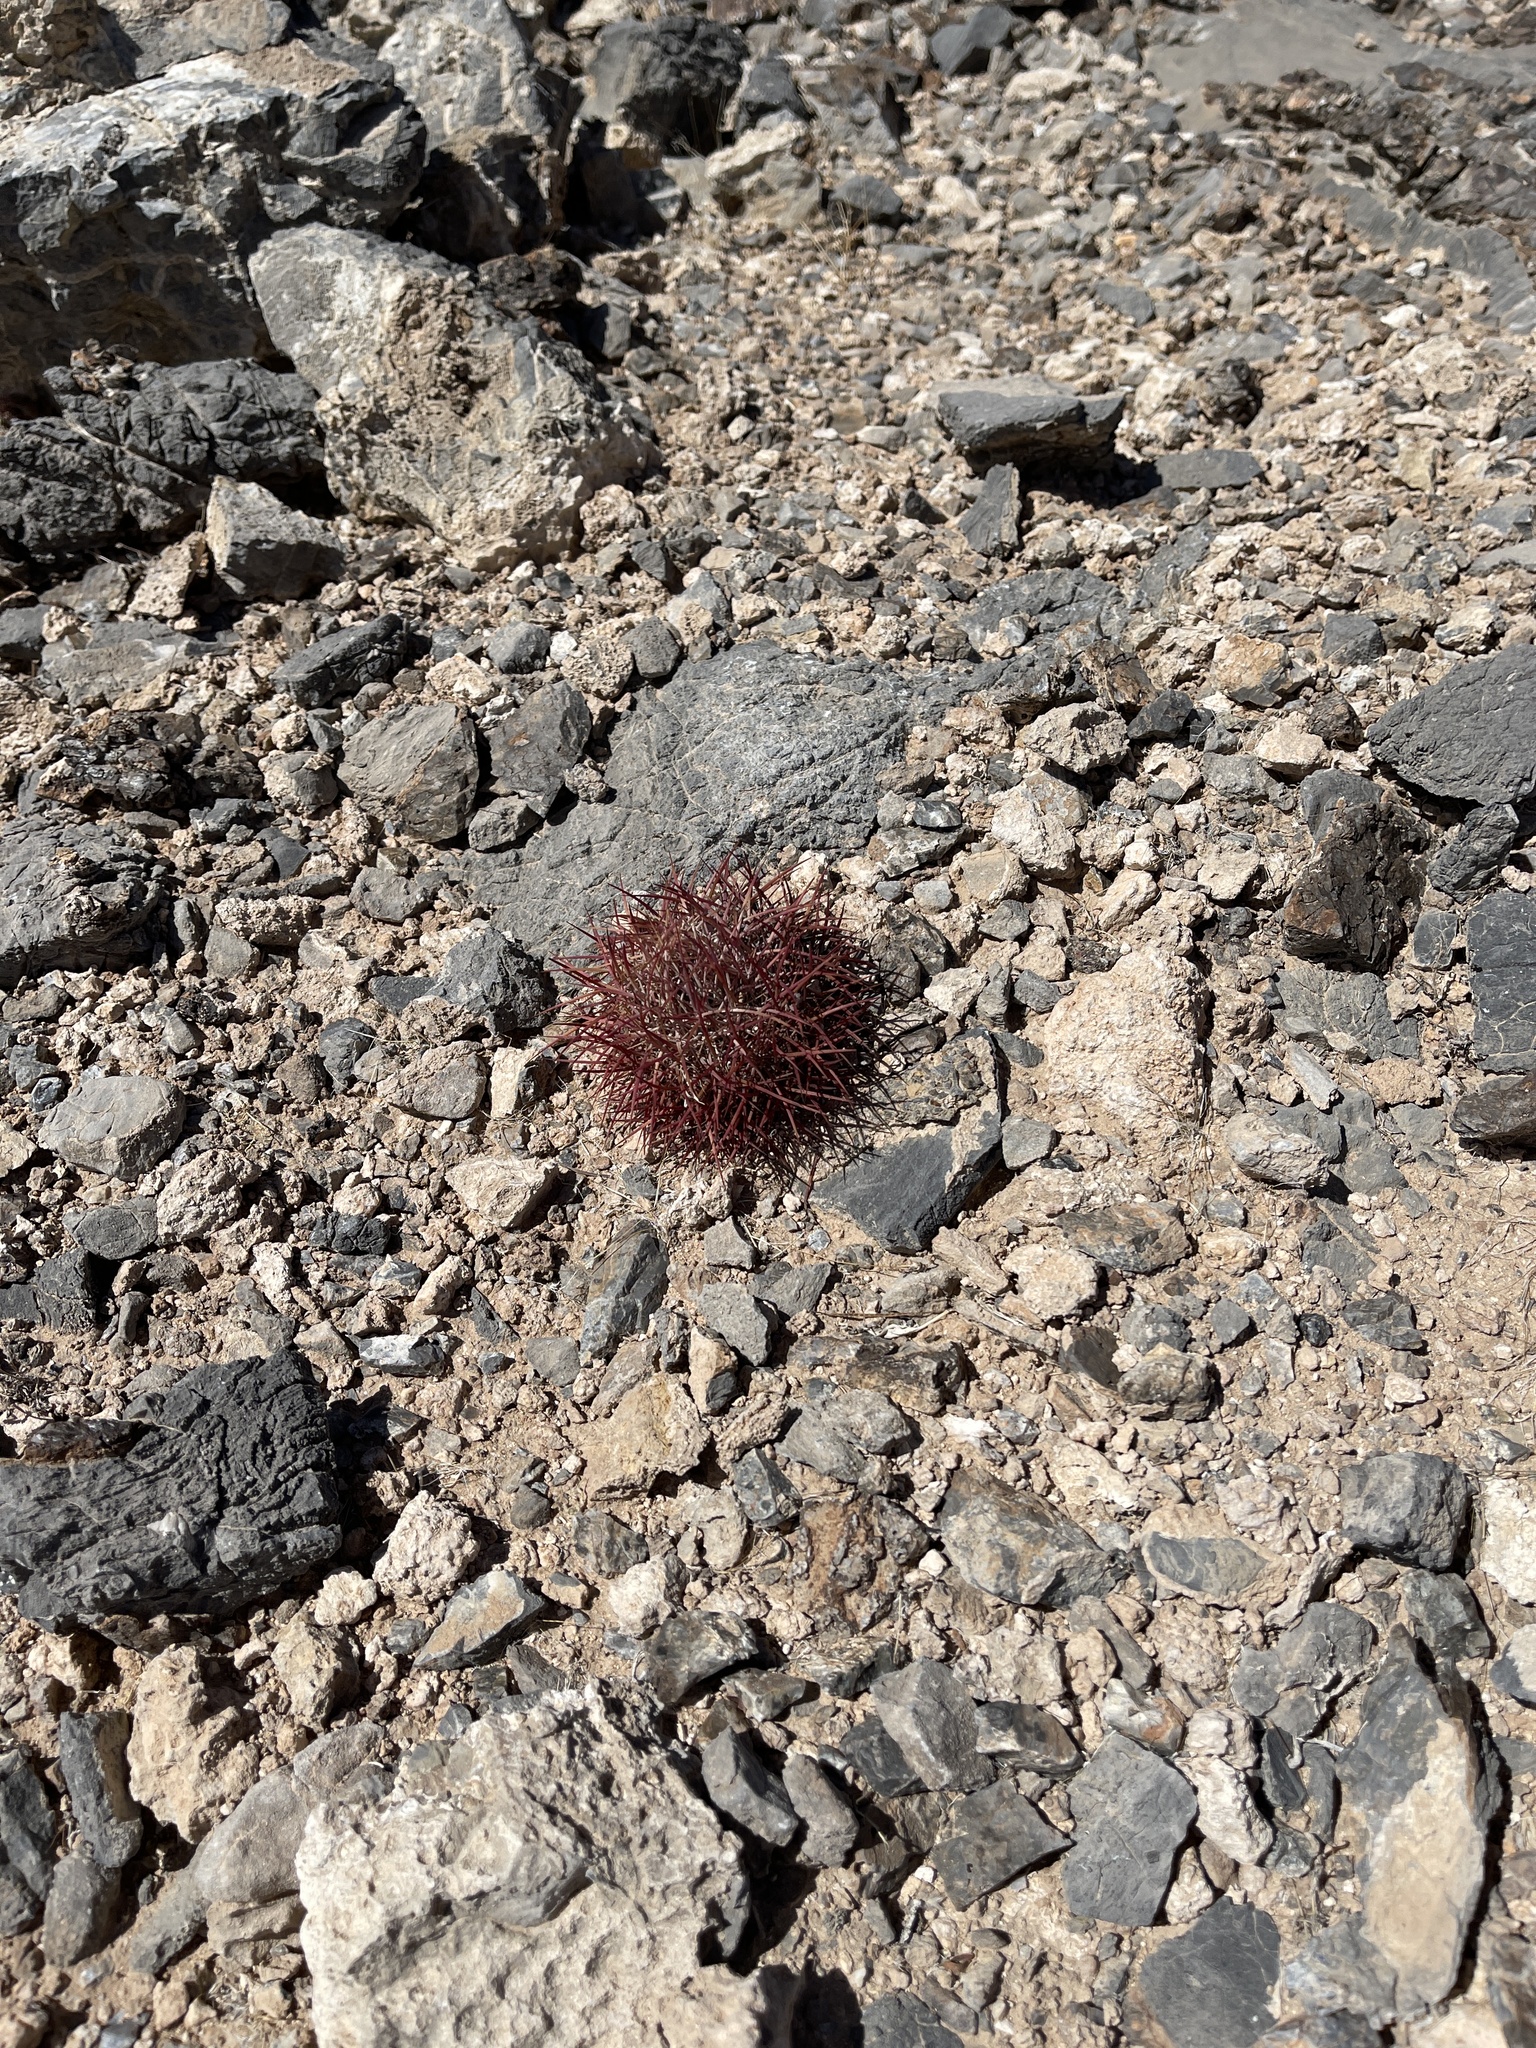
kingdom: Plantae
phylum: Tracheophyta
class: Magnoliopsida
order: Caryophyllales
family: Cactaceae
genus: Sclerocactus
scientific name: Sclerocactus johnsonii
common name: Eight-spine fishhook cactus
